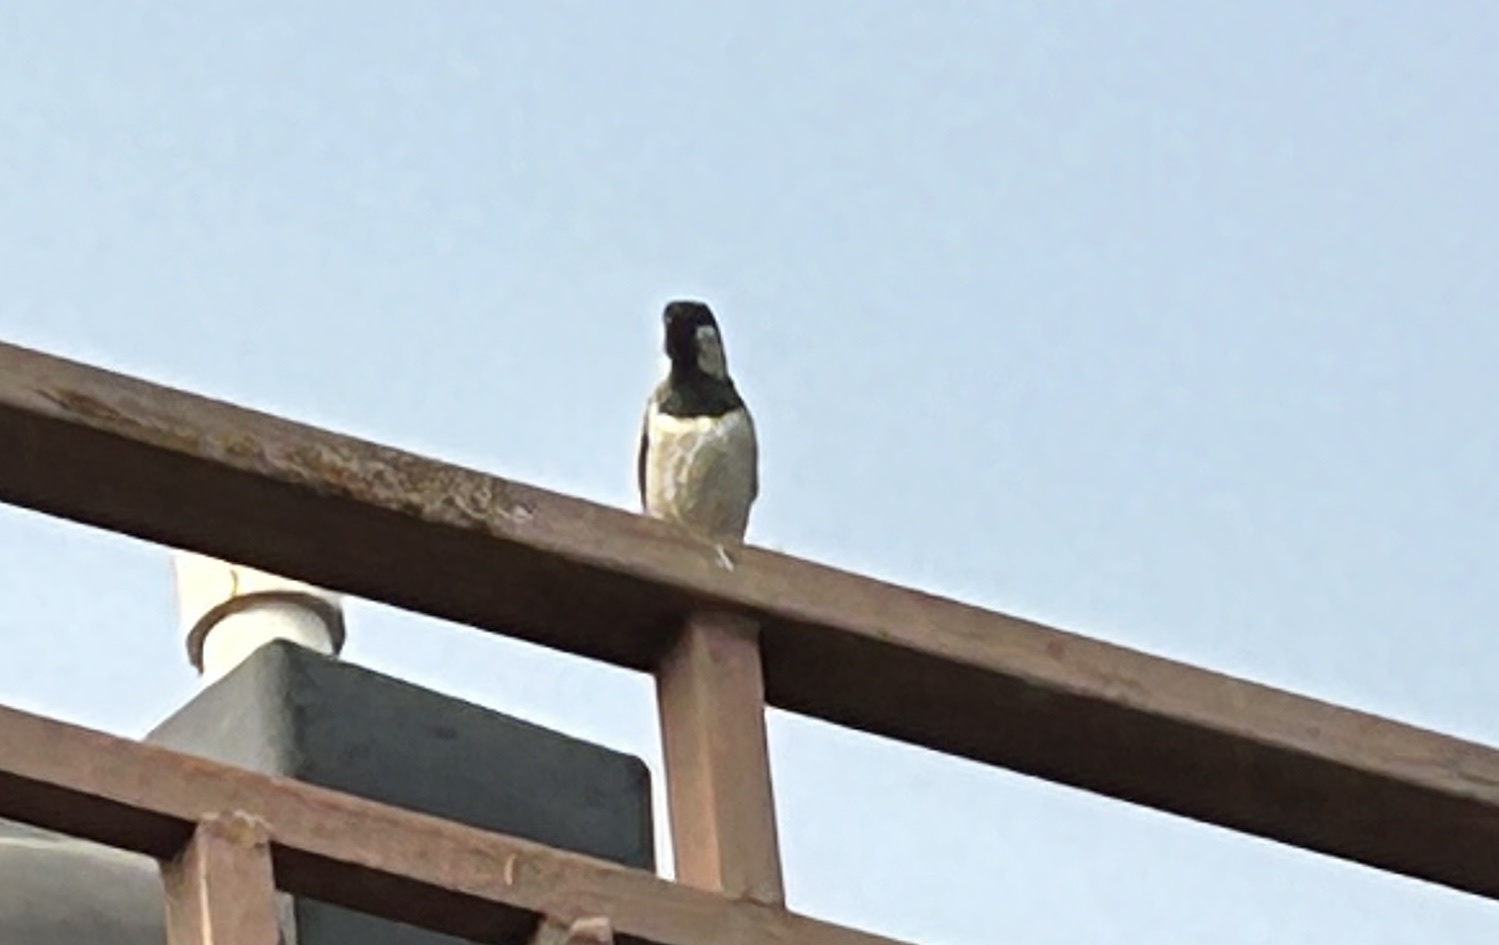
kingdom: Animalia
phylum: Chordata
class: Aves
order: Passeriformes
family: Passeridae
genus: Passer
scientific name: Passer domesticus
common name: House sparrow
